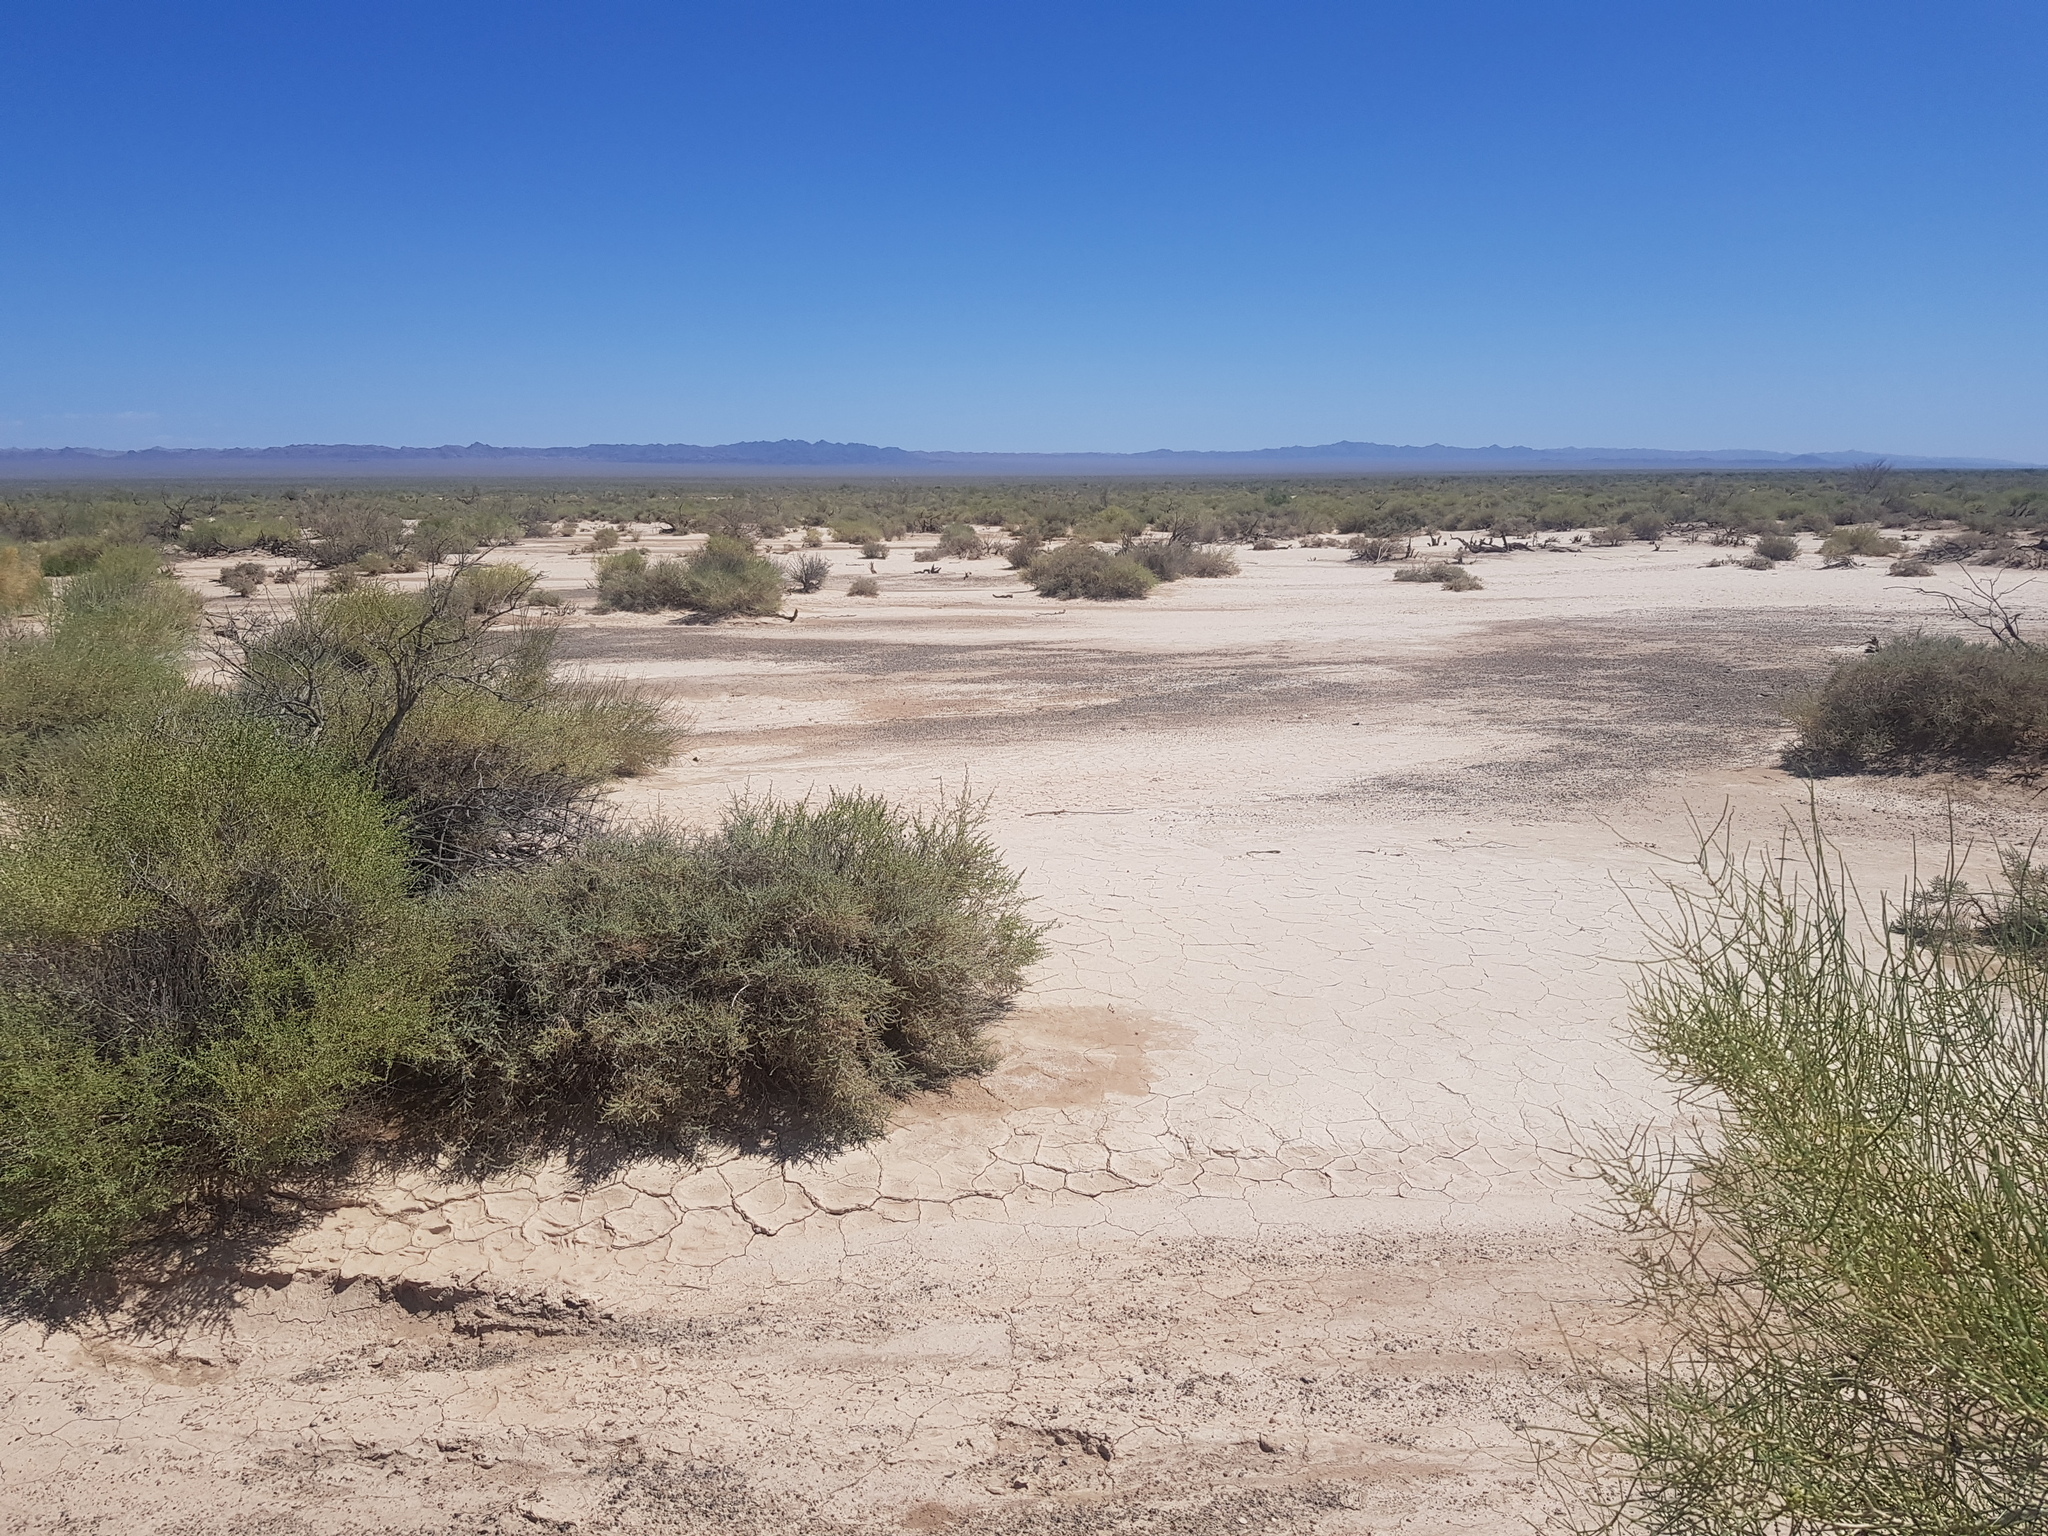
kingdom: Plantae
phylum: Tracheophyta
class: Magnoliopsida
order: Caryophyllales
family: Amaranthaceae
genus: Haloxylon
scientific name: Haloxylon ammodendron
